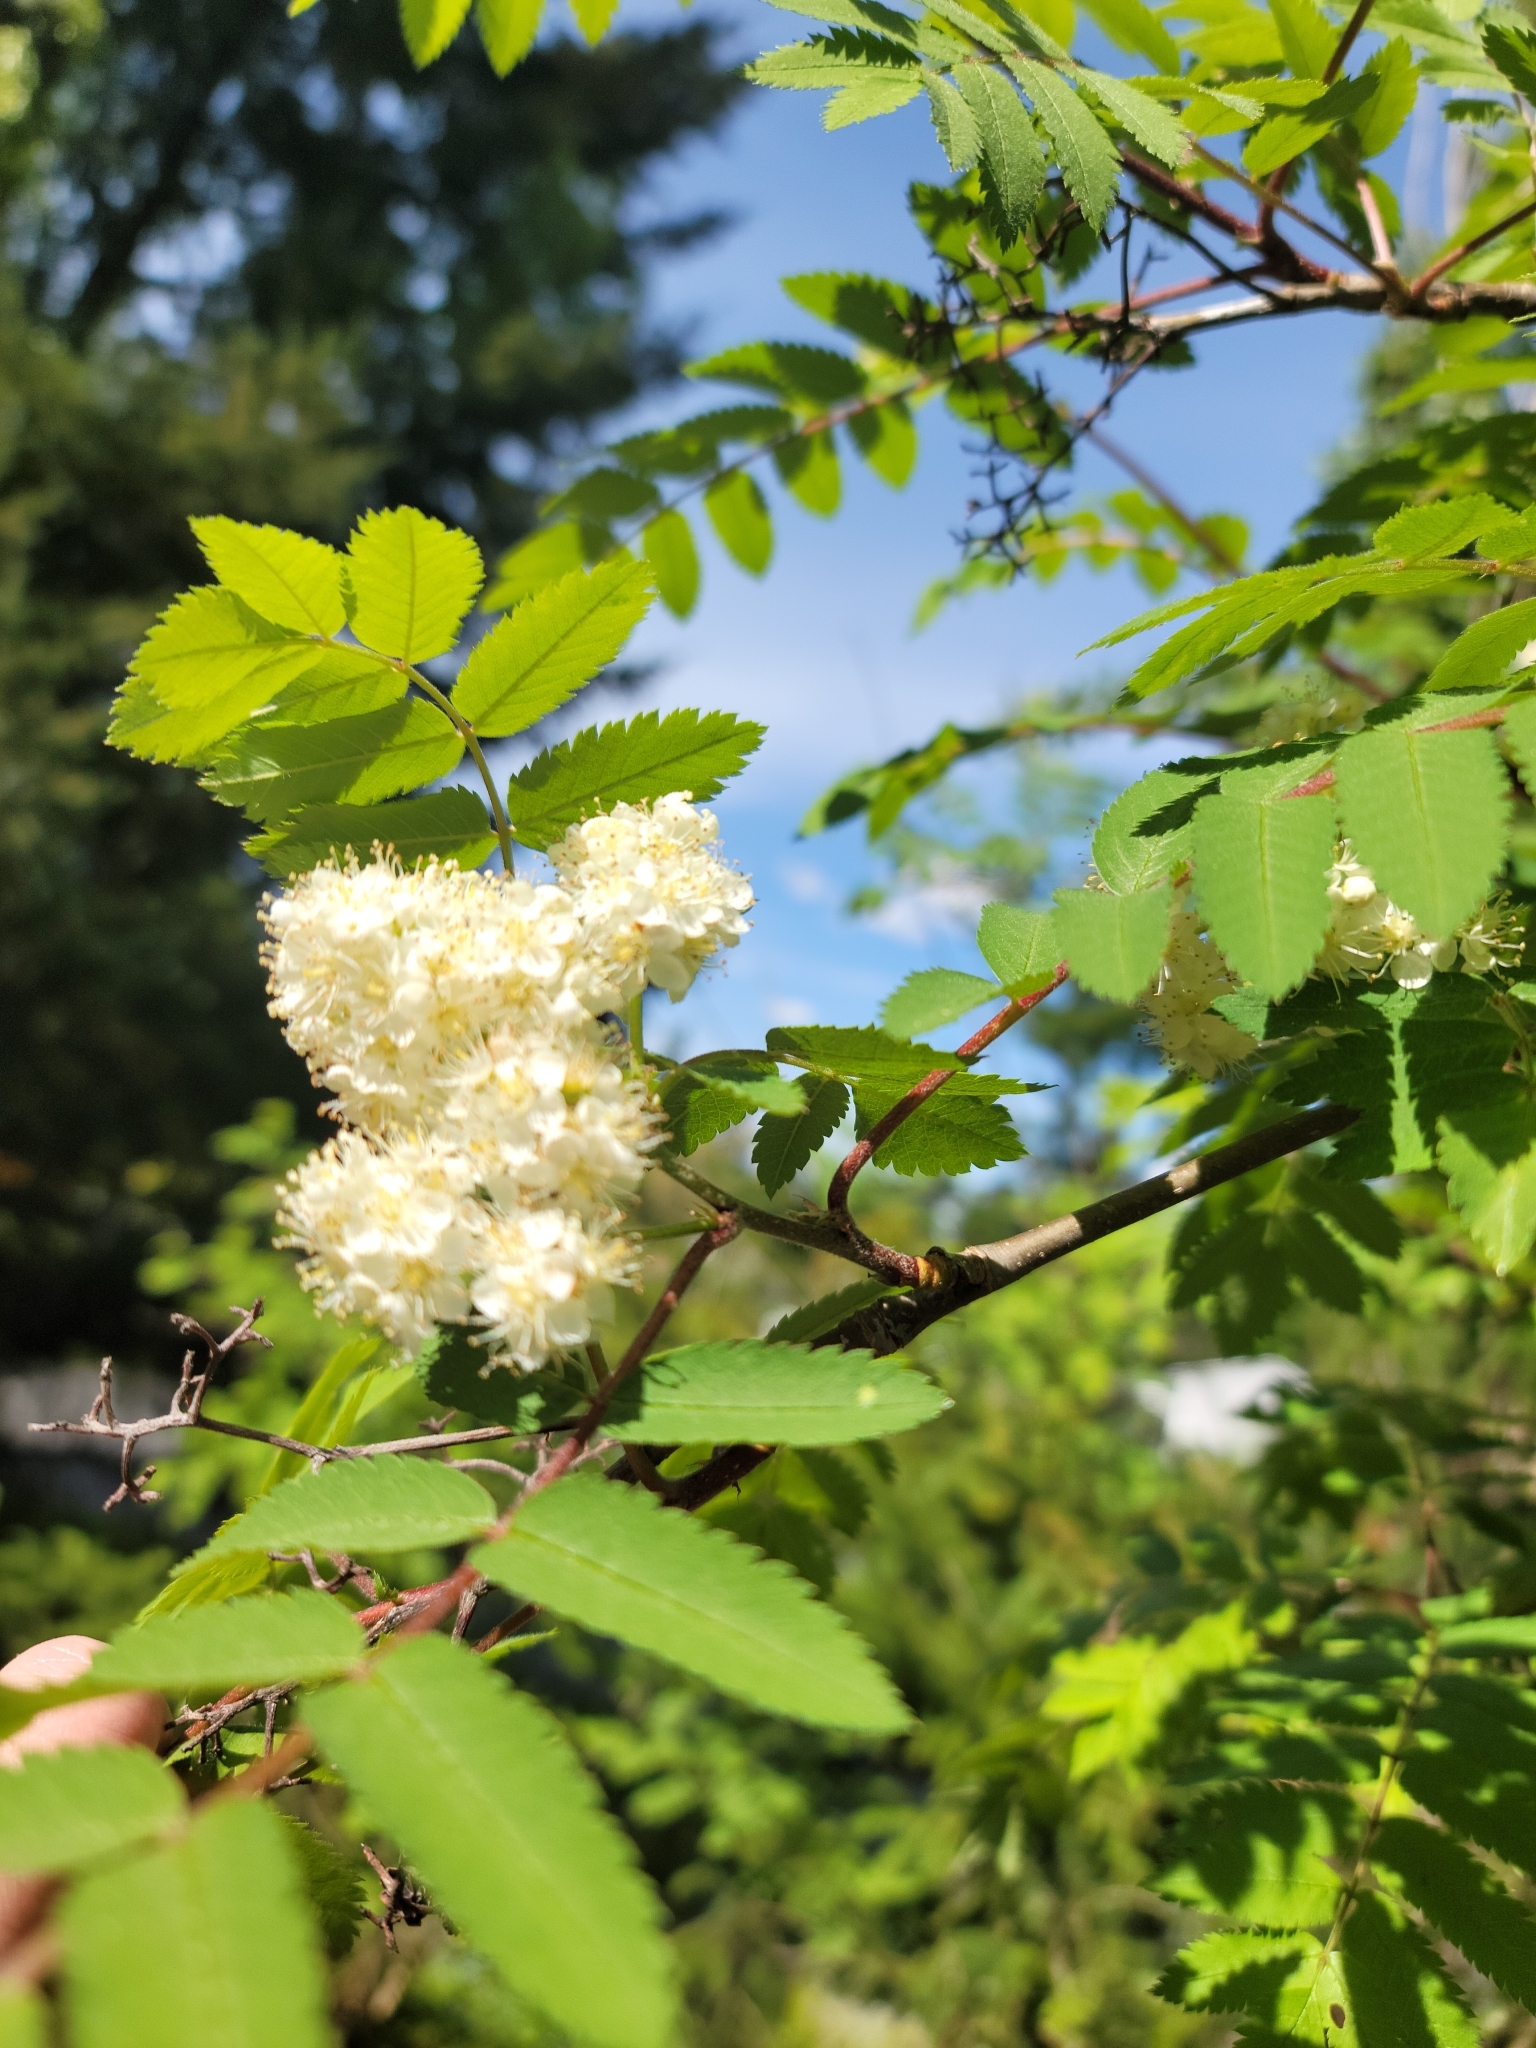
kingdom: Plantae
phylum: Tracheophyta
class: Magnoliopsida
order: Rosales
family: Rosaceae
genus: Sorbus
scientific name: Sorbus aucuparia
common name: Rowan
